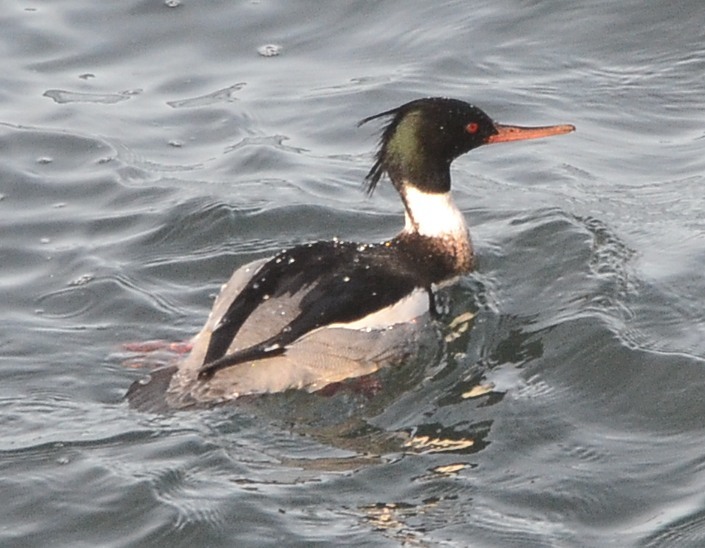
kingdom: Animalia
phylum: Chordata
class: Aves
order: Anseriformes
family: Anatidae
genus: Mergus
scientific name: Mergus serrator
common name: Red-breasted merganser
